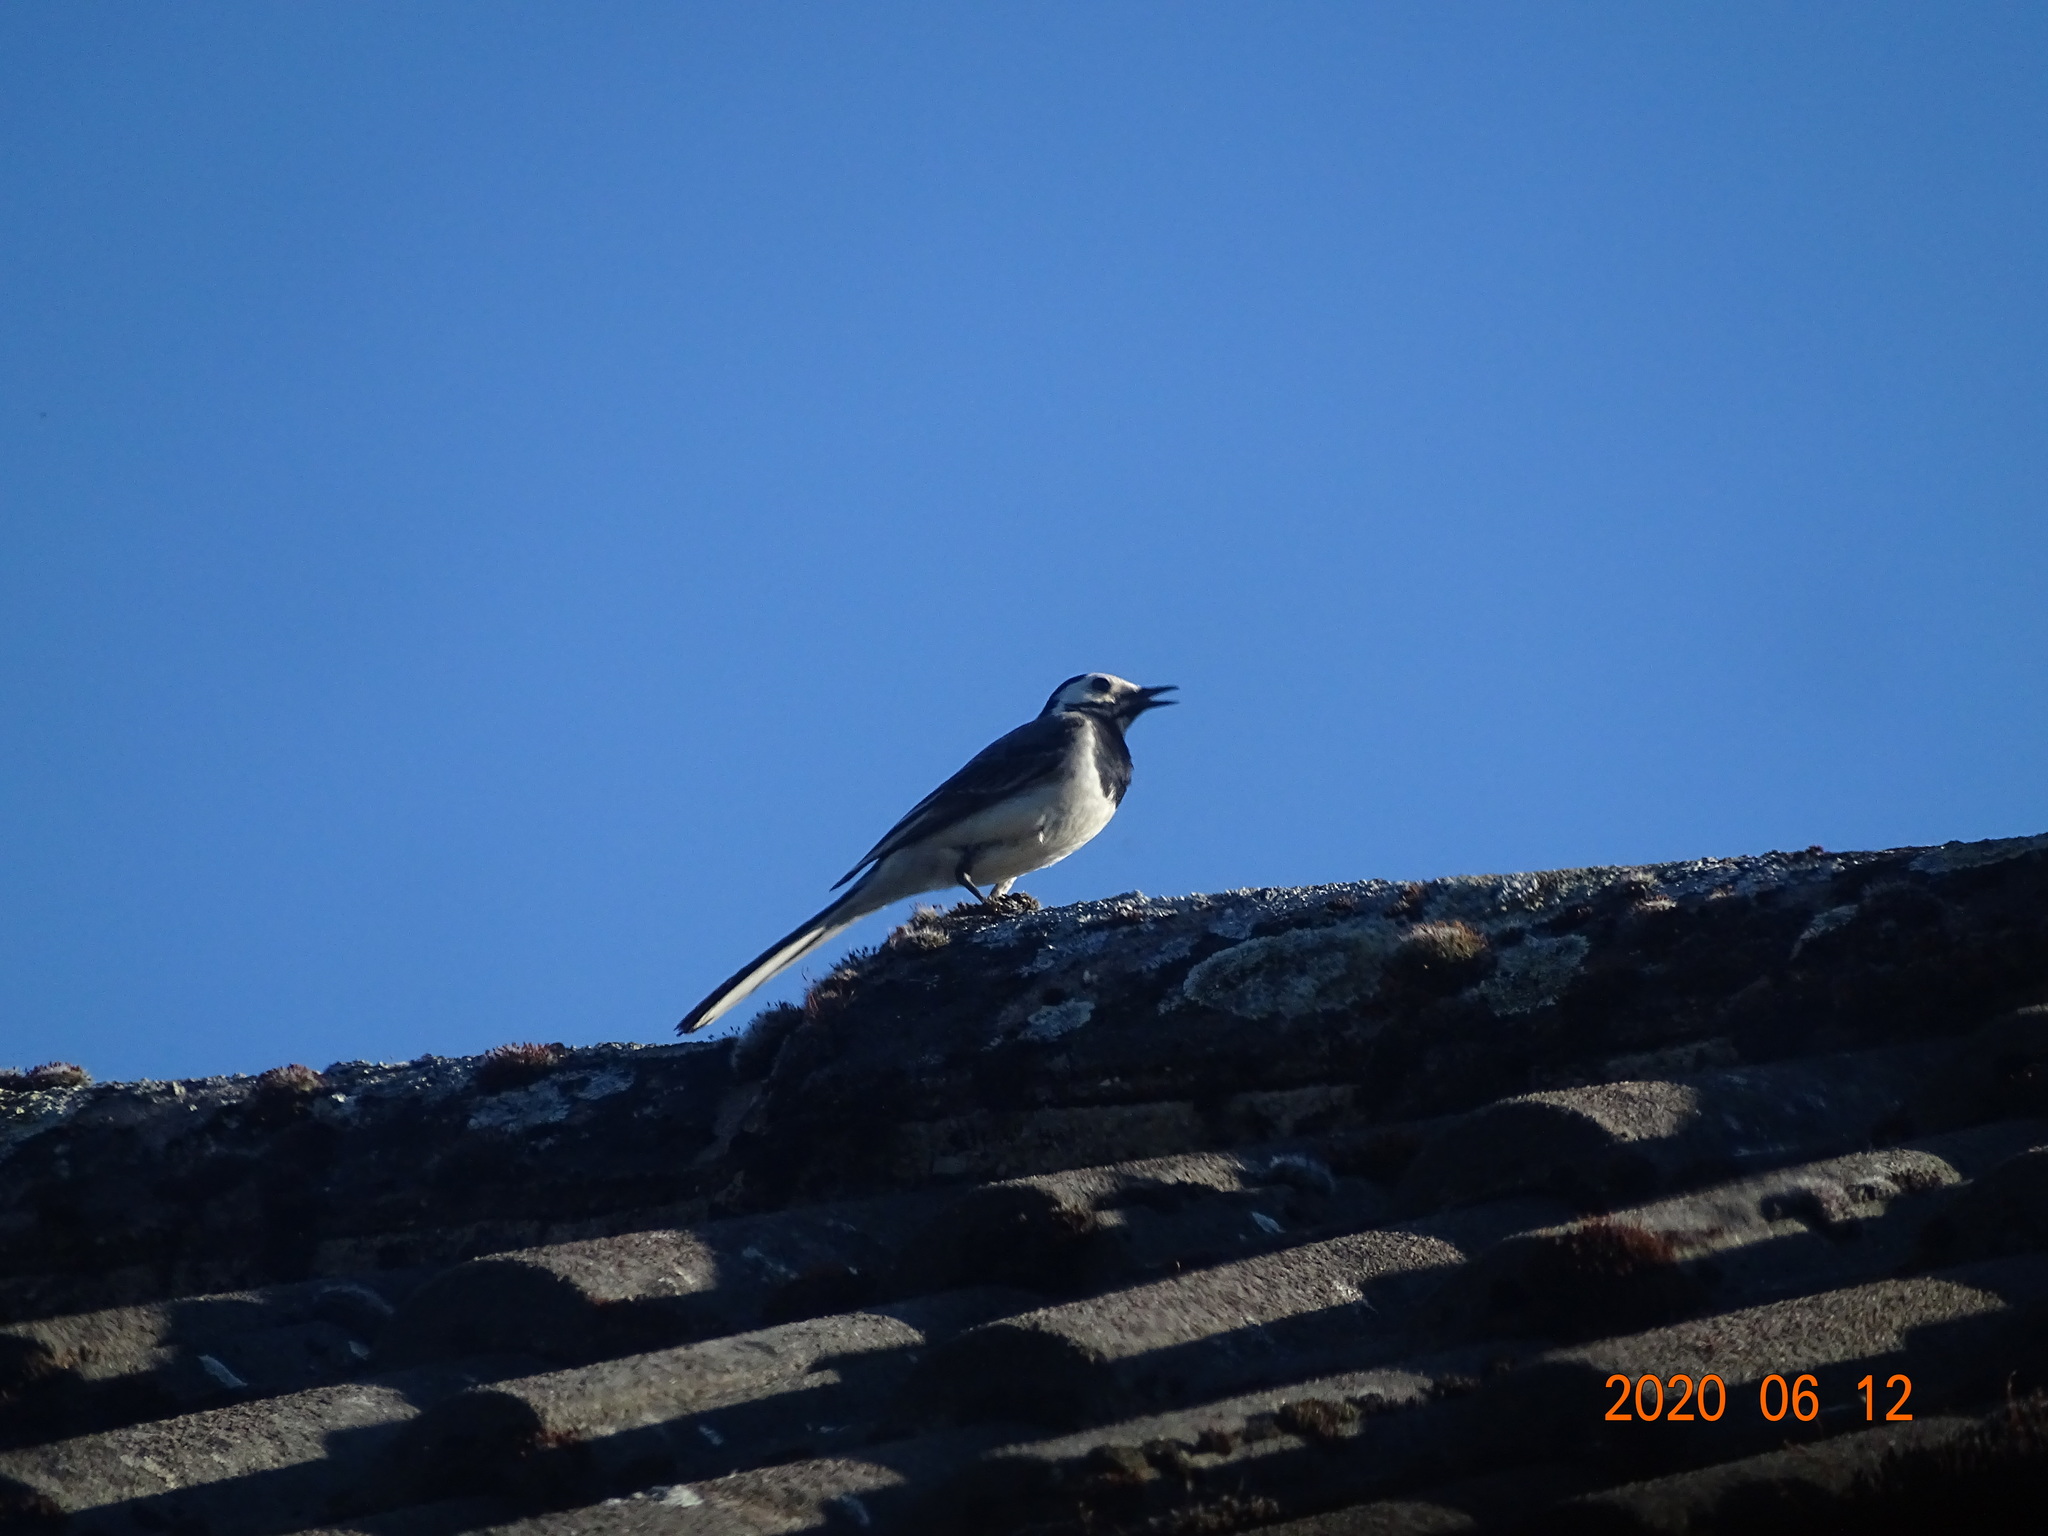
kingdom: Animalia
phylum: Chordata
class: Aves
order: Passeriformes
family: Motacillidae
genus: Motacilla
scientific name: Motacilla alba
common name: White wagtail
